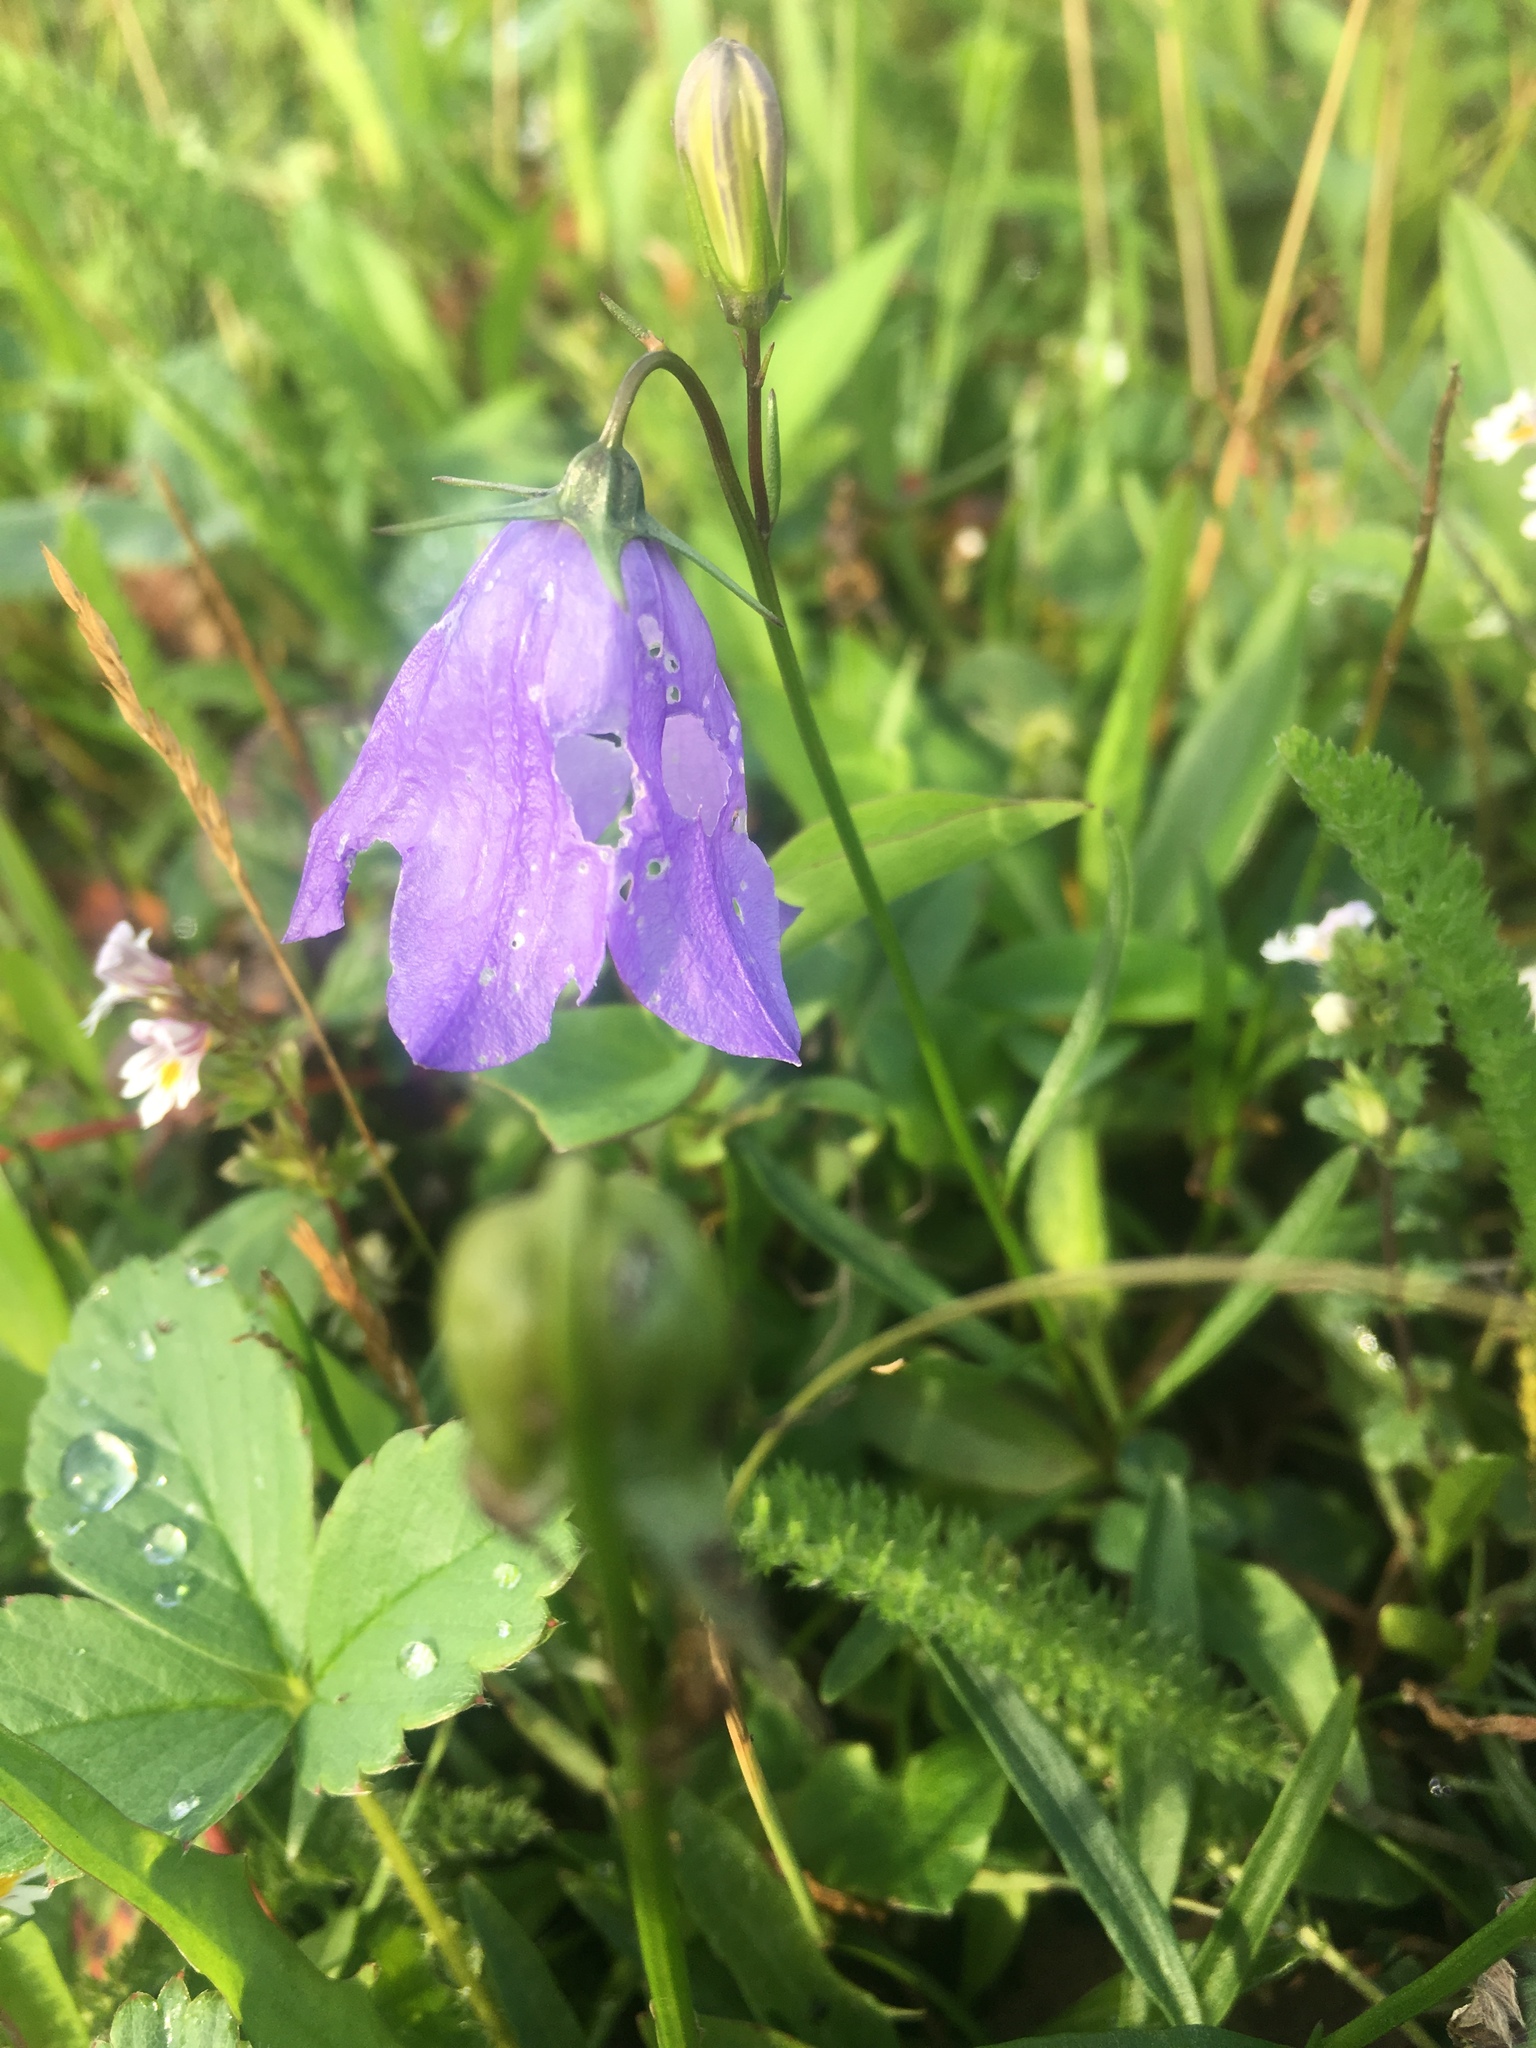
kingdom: Plantae
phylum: Tracheophyta
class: Magnoliopsida
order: Asterales
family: Campanulaceae
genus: Campanula
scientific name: Campanula giesekiana
